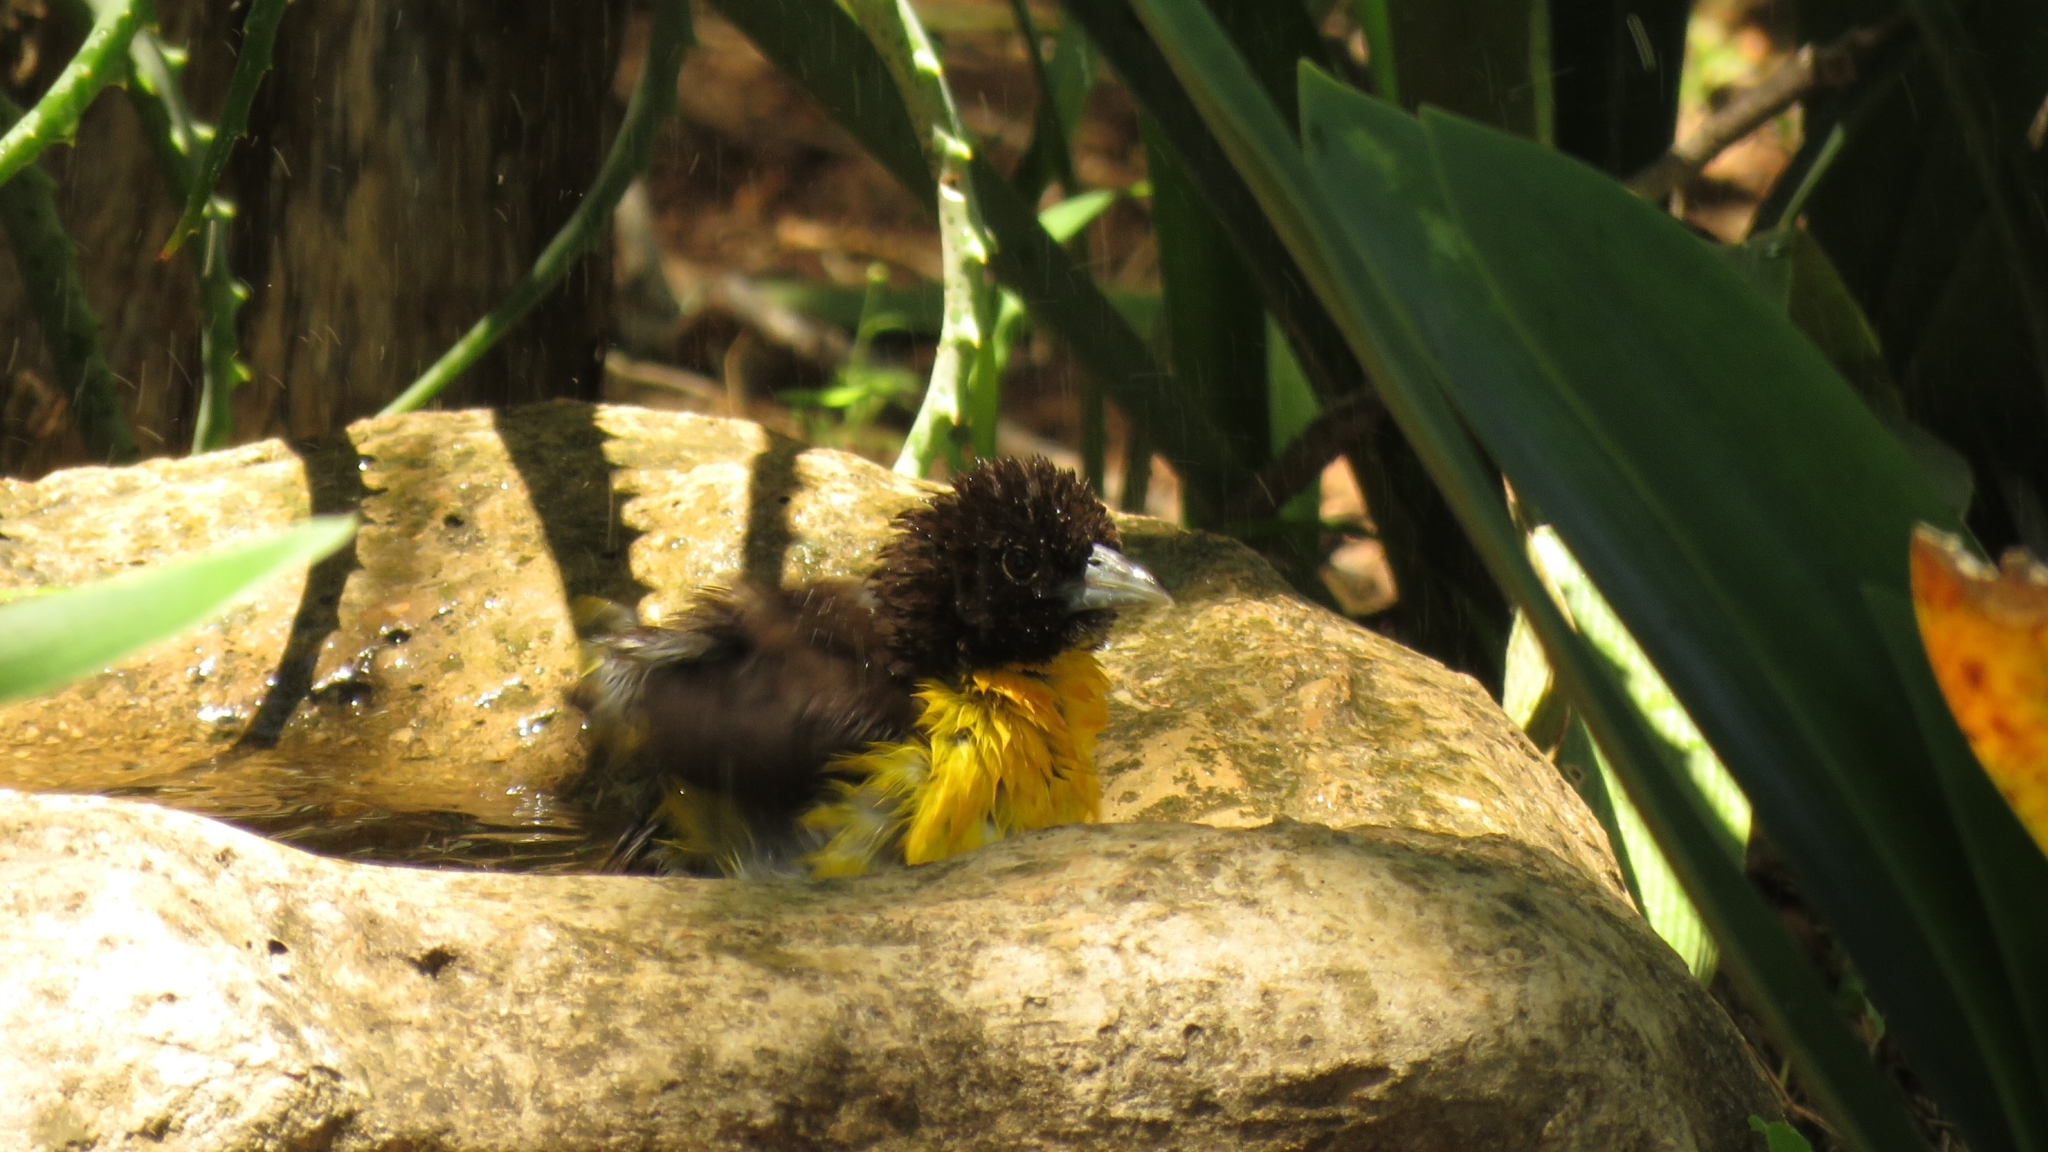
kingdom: Animalia
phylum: Chordata
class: Aves
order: Passeriformes
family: Ploceidae
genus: Ploceus
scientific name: Ploceus bicolor
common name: Dark-backed weaver
